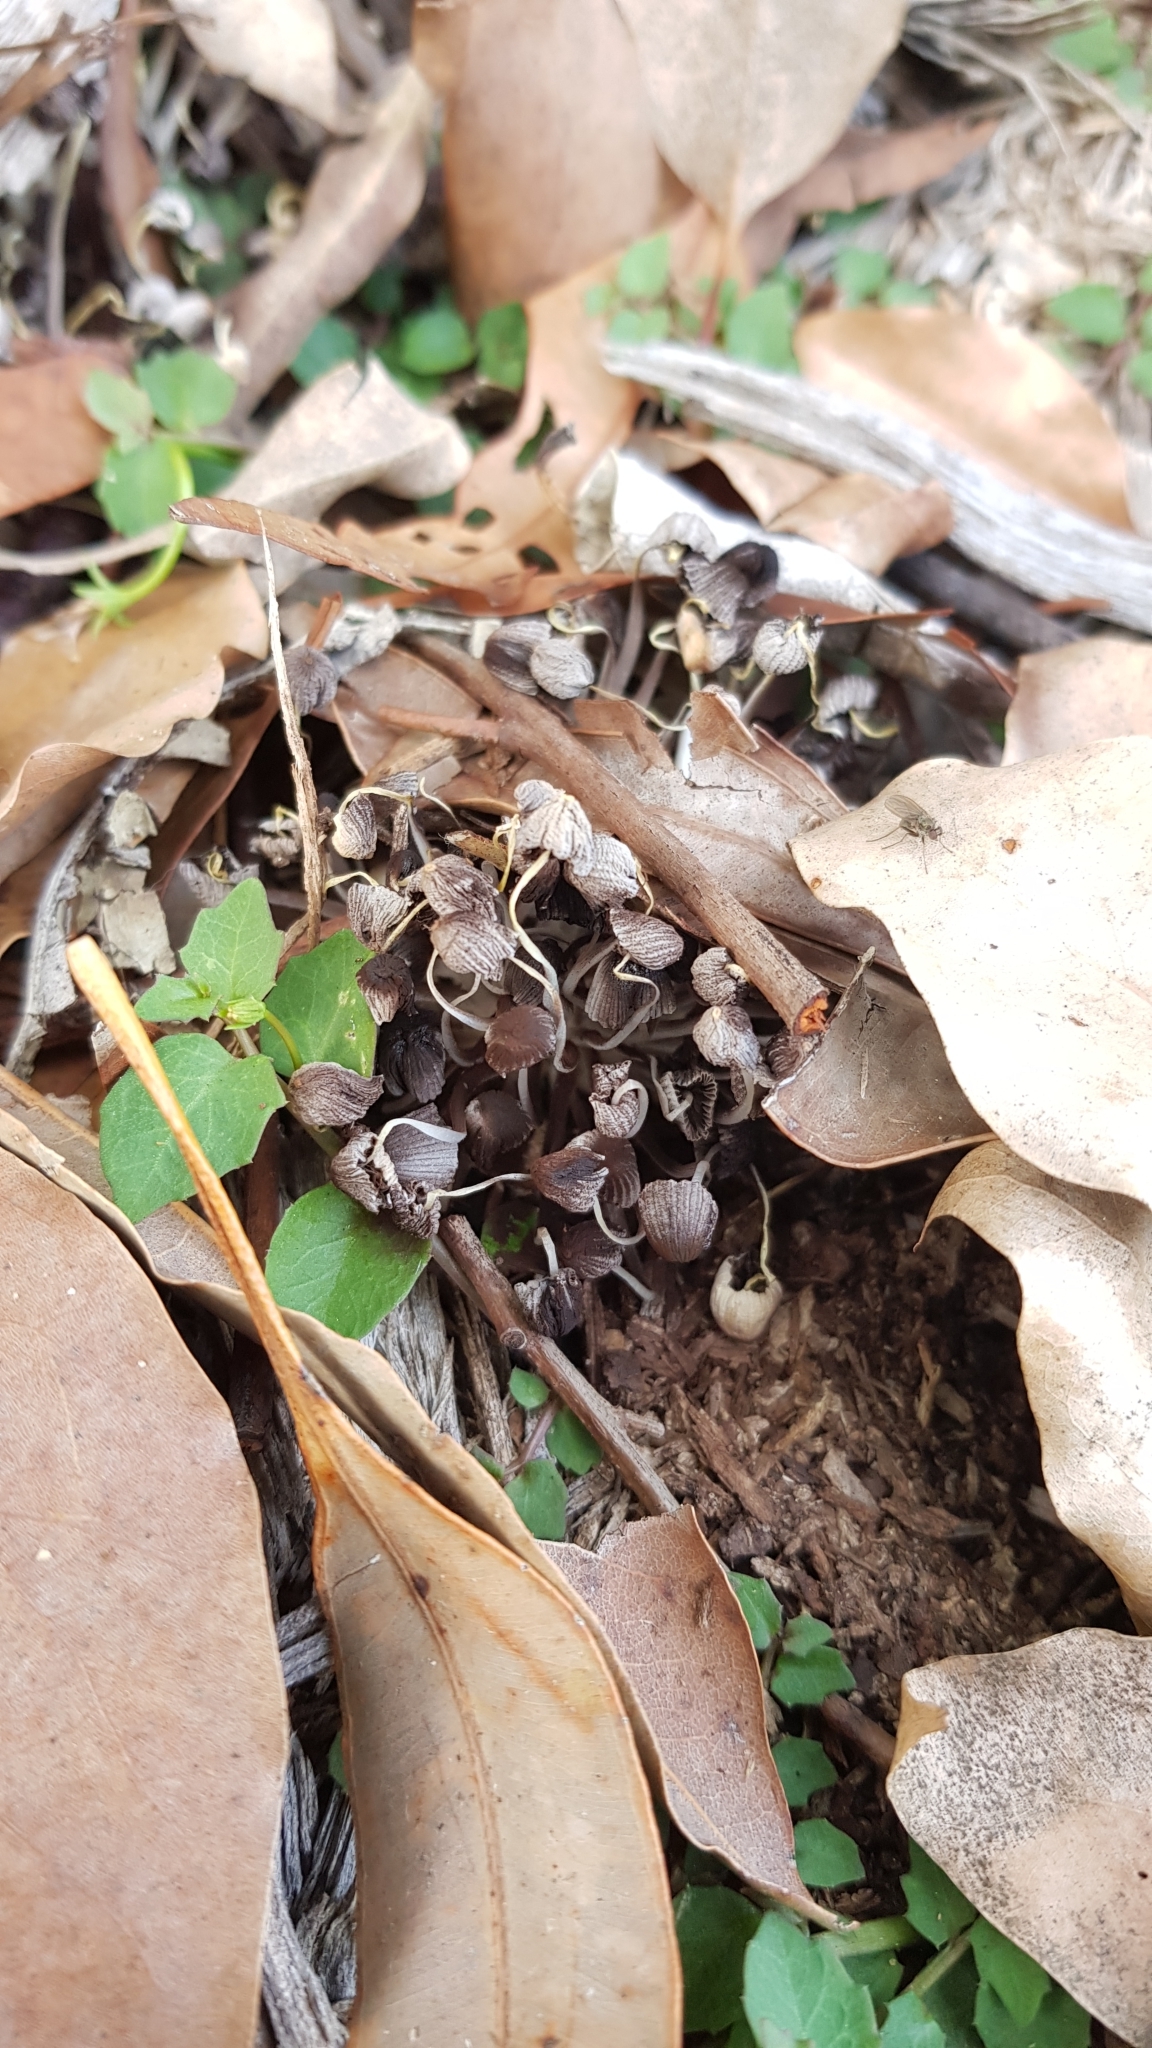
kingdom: Fungi
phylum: Basidiomycota
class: Agaricomycetes
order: Agaricales
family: Psathyrellaceae
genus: Coprinellus
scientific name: Coprinellus disseminatus
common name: Fairies' bonnets
